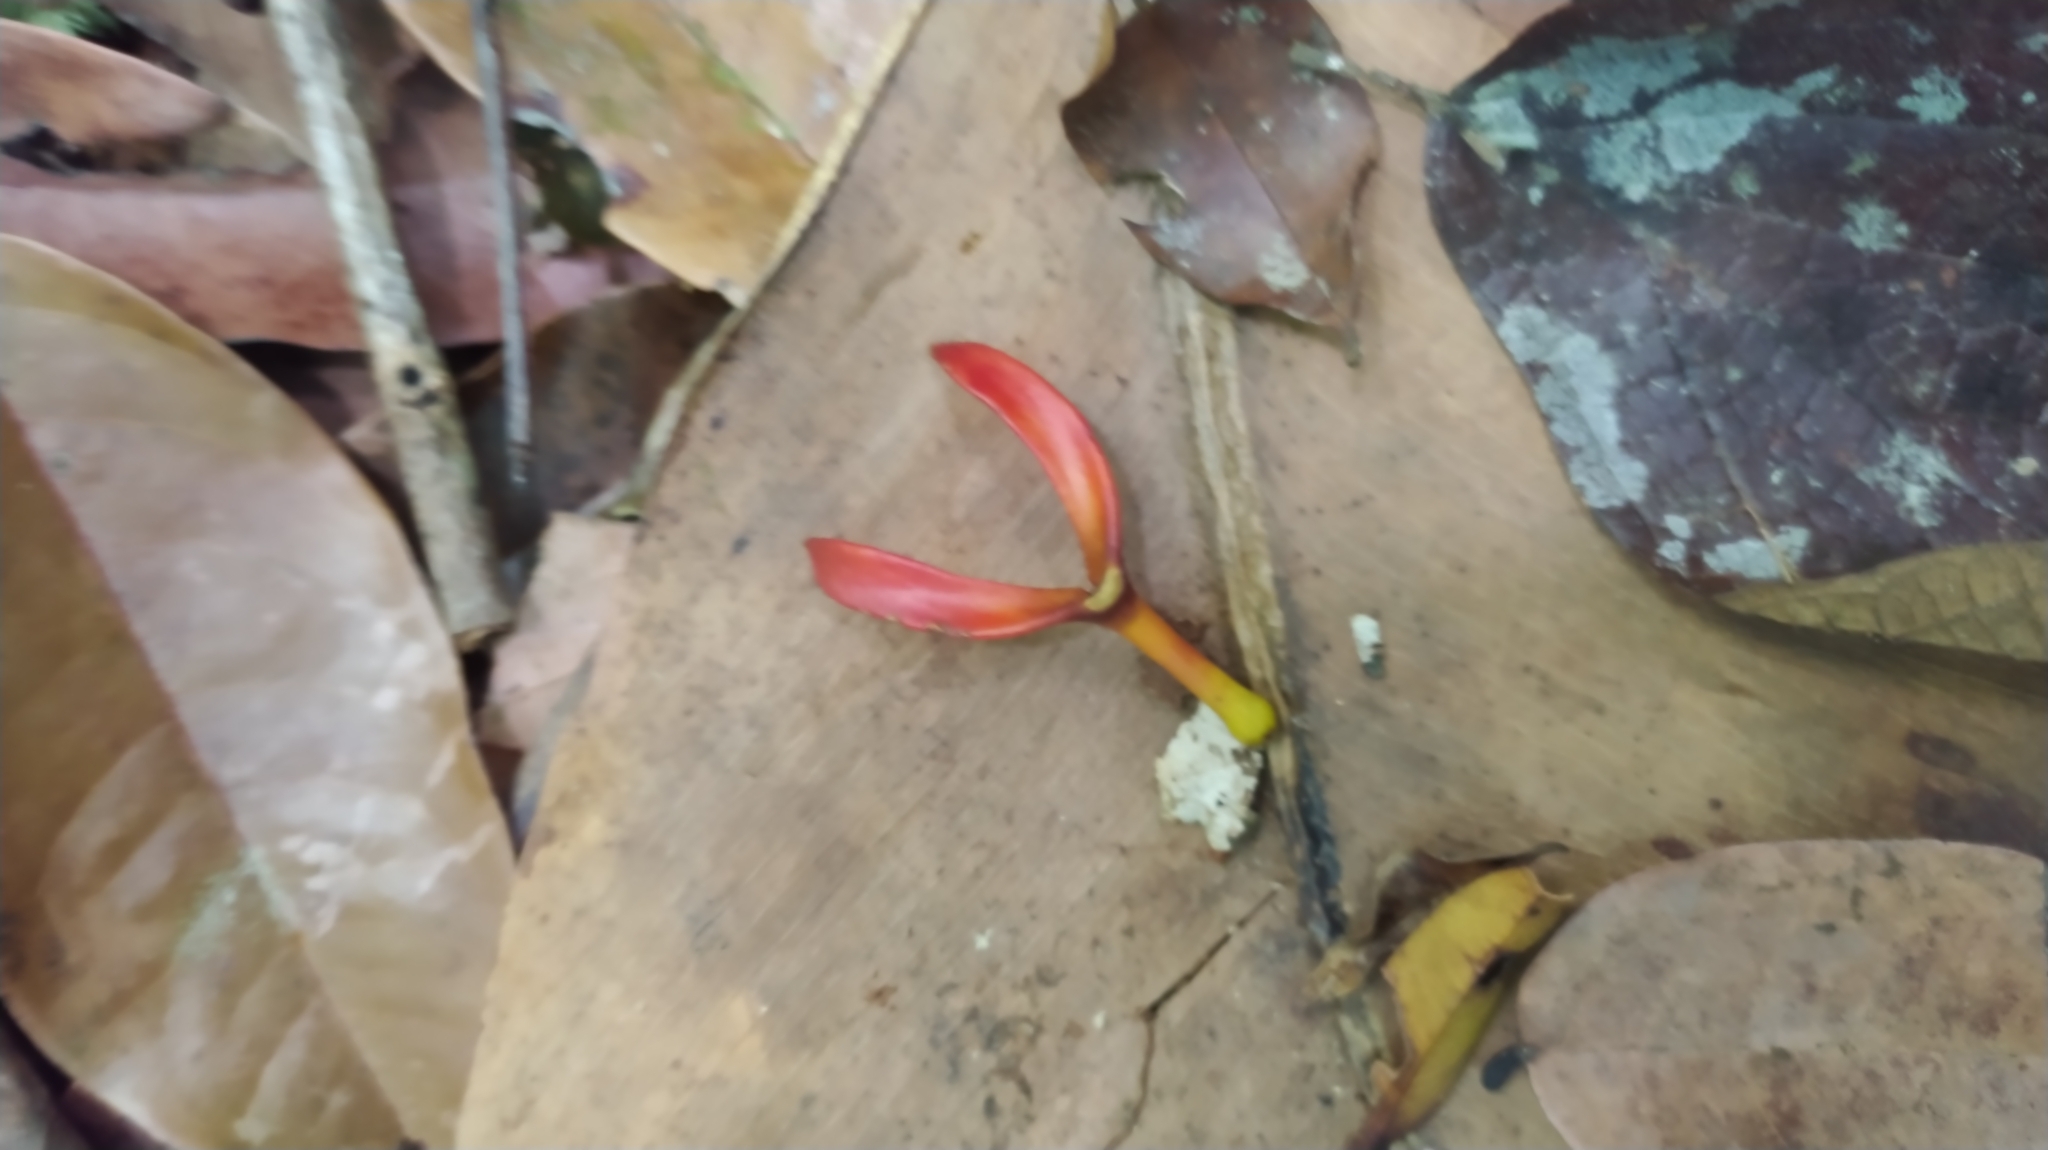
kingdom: Plantae
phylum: Tracheophyta
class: Magnoliopsida
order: Ericales
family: Marcgraviaceae
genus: Souroubea
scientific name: Souroubea guianensis
